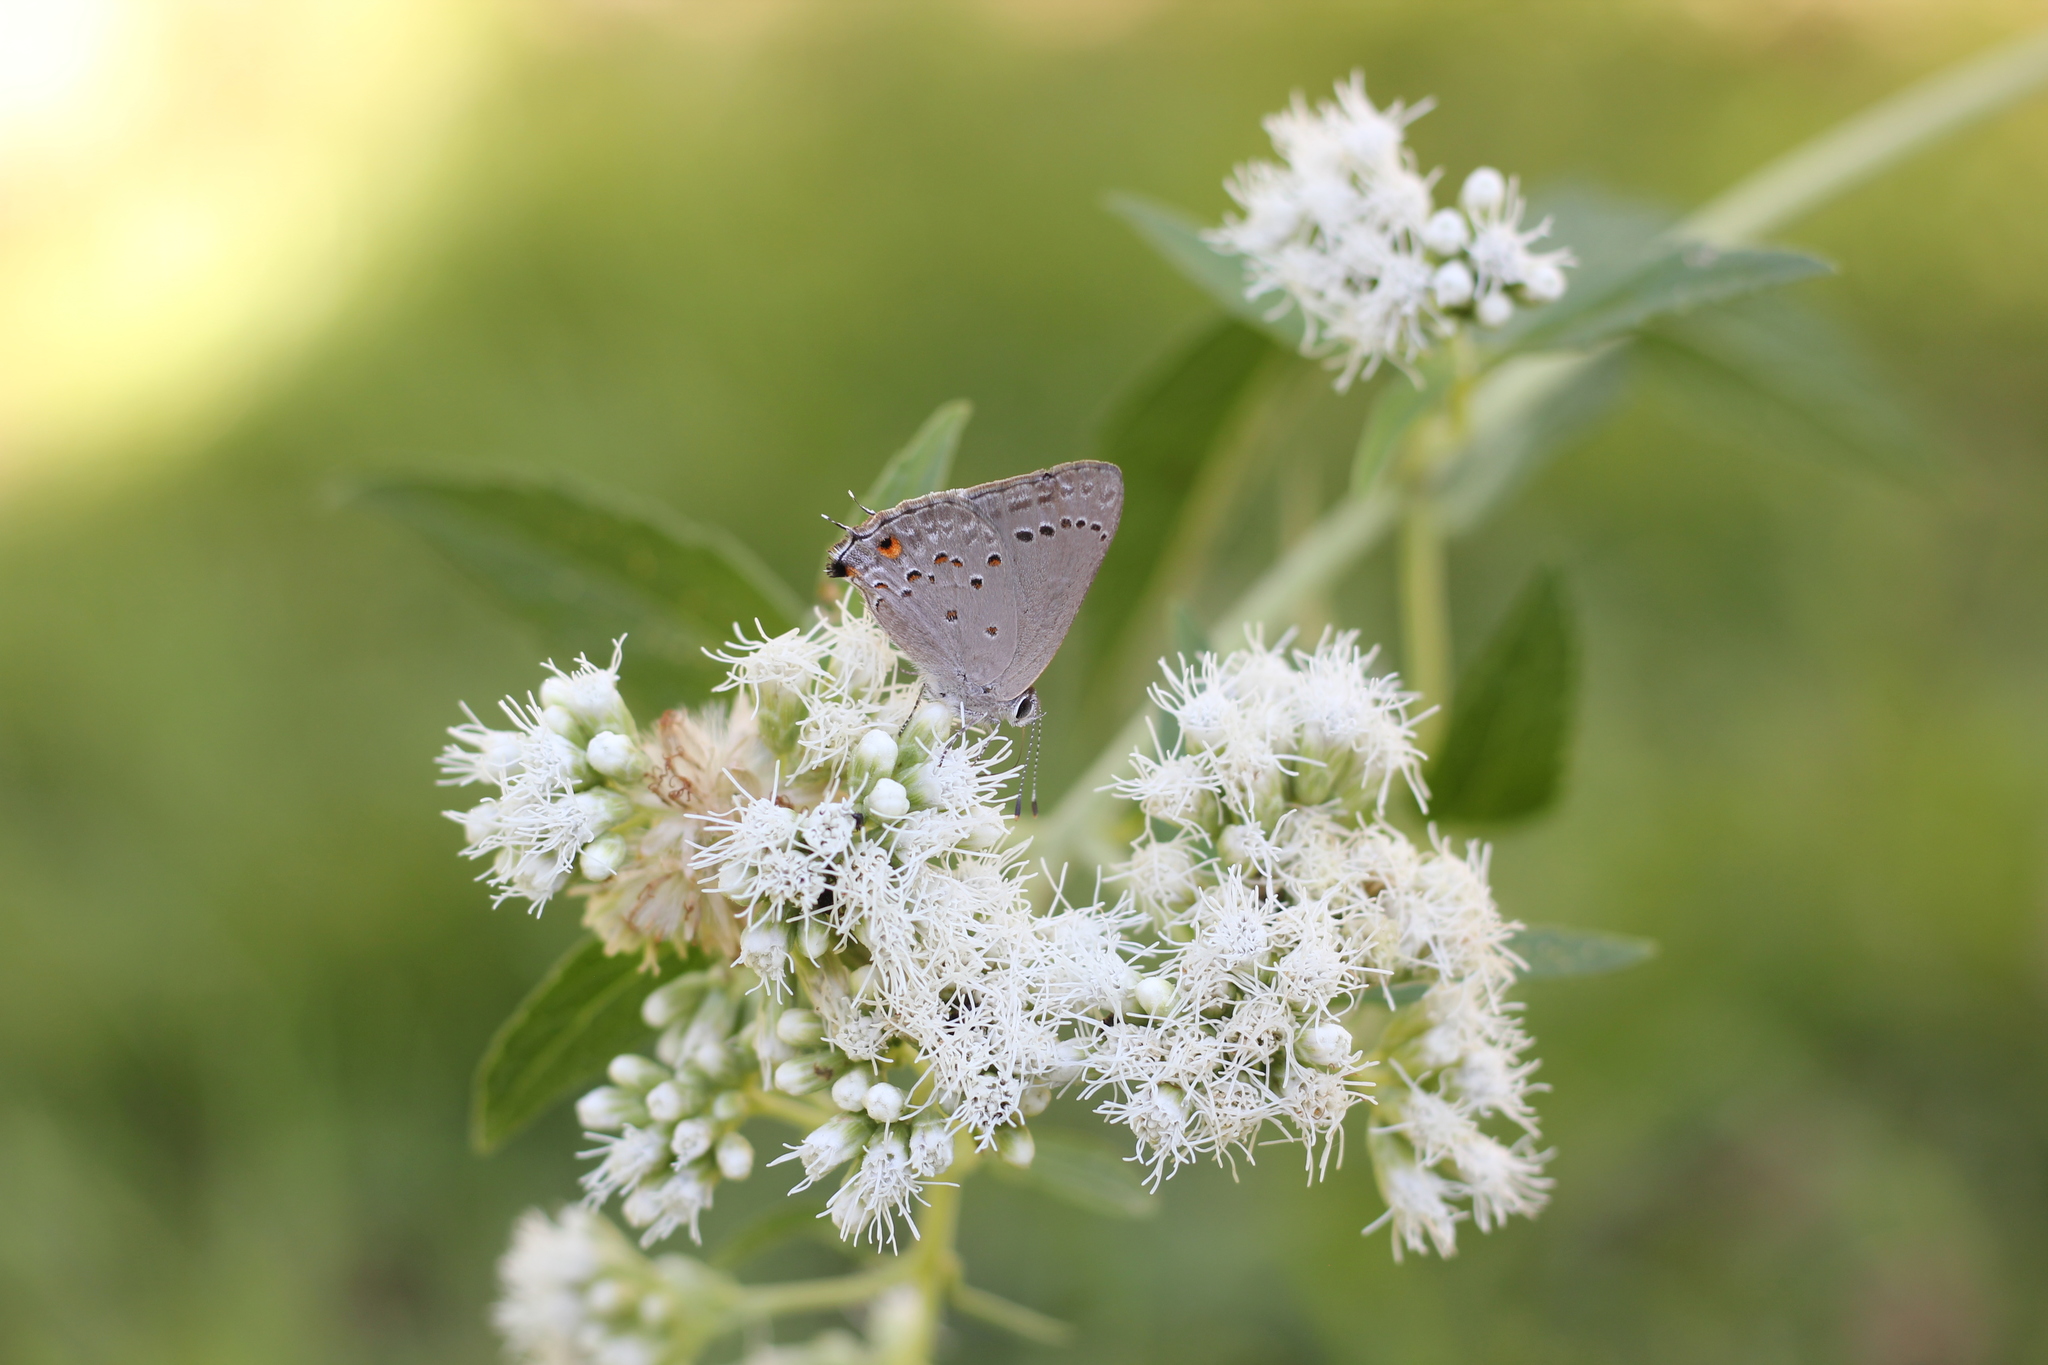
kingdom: Animalia
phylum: Arthropoda
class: Insecta
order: Lepidoptera
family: Lycaenidae
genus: Strymon
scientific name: Strymon
